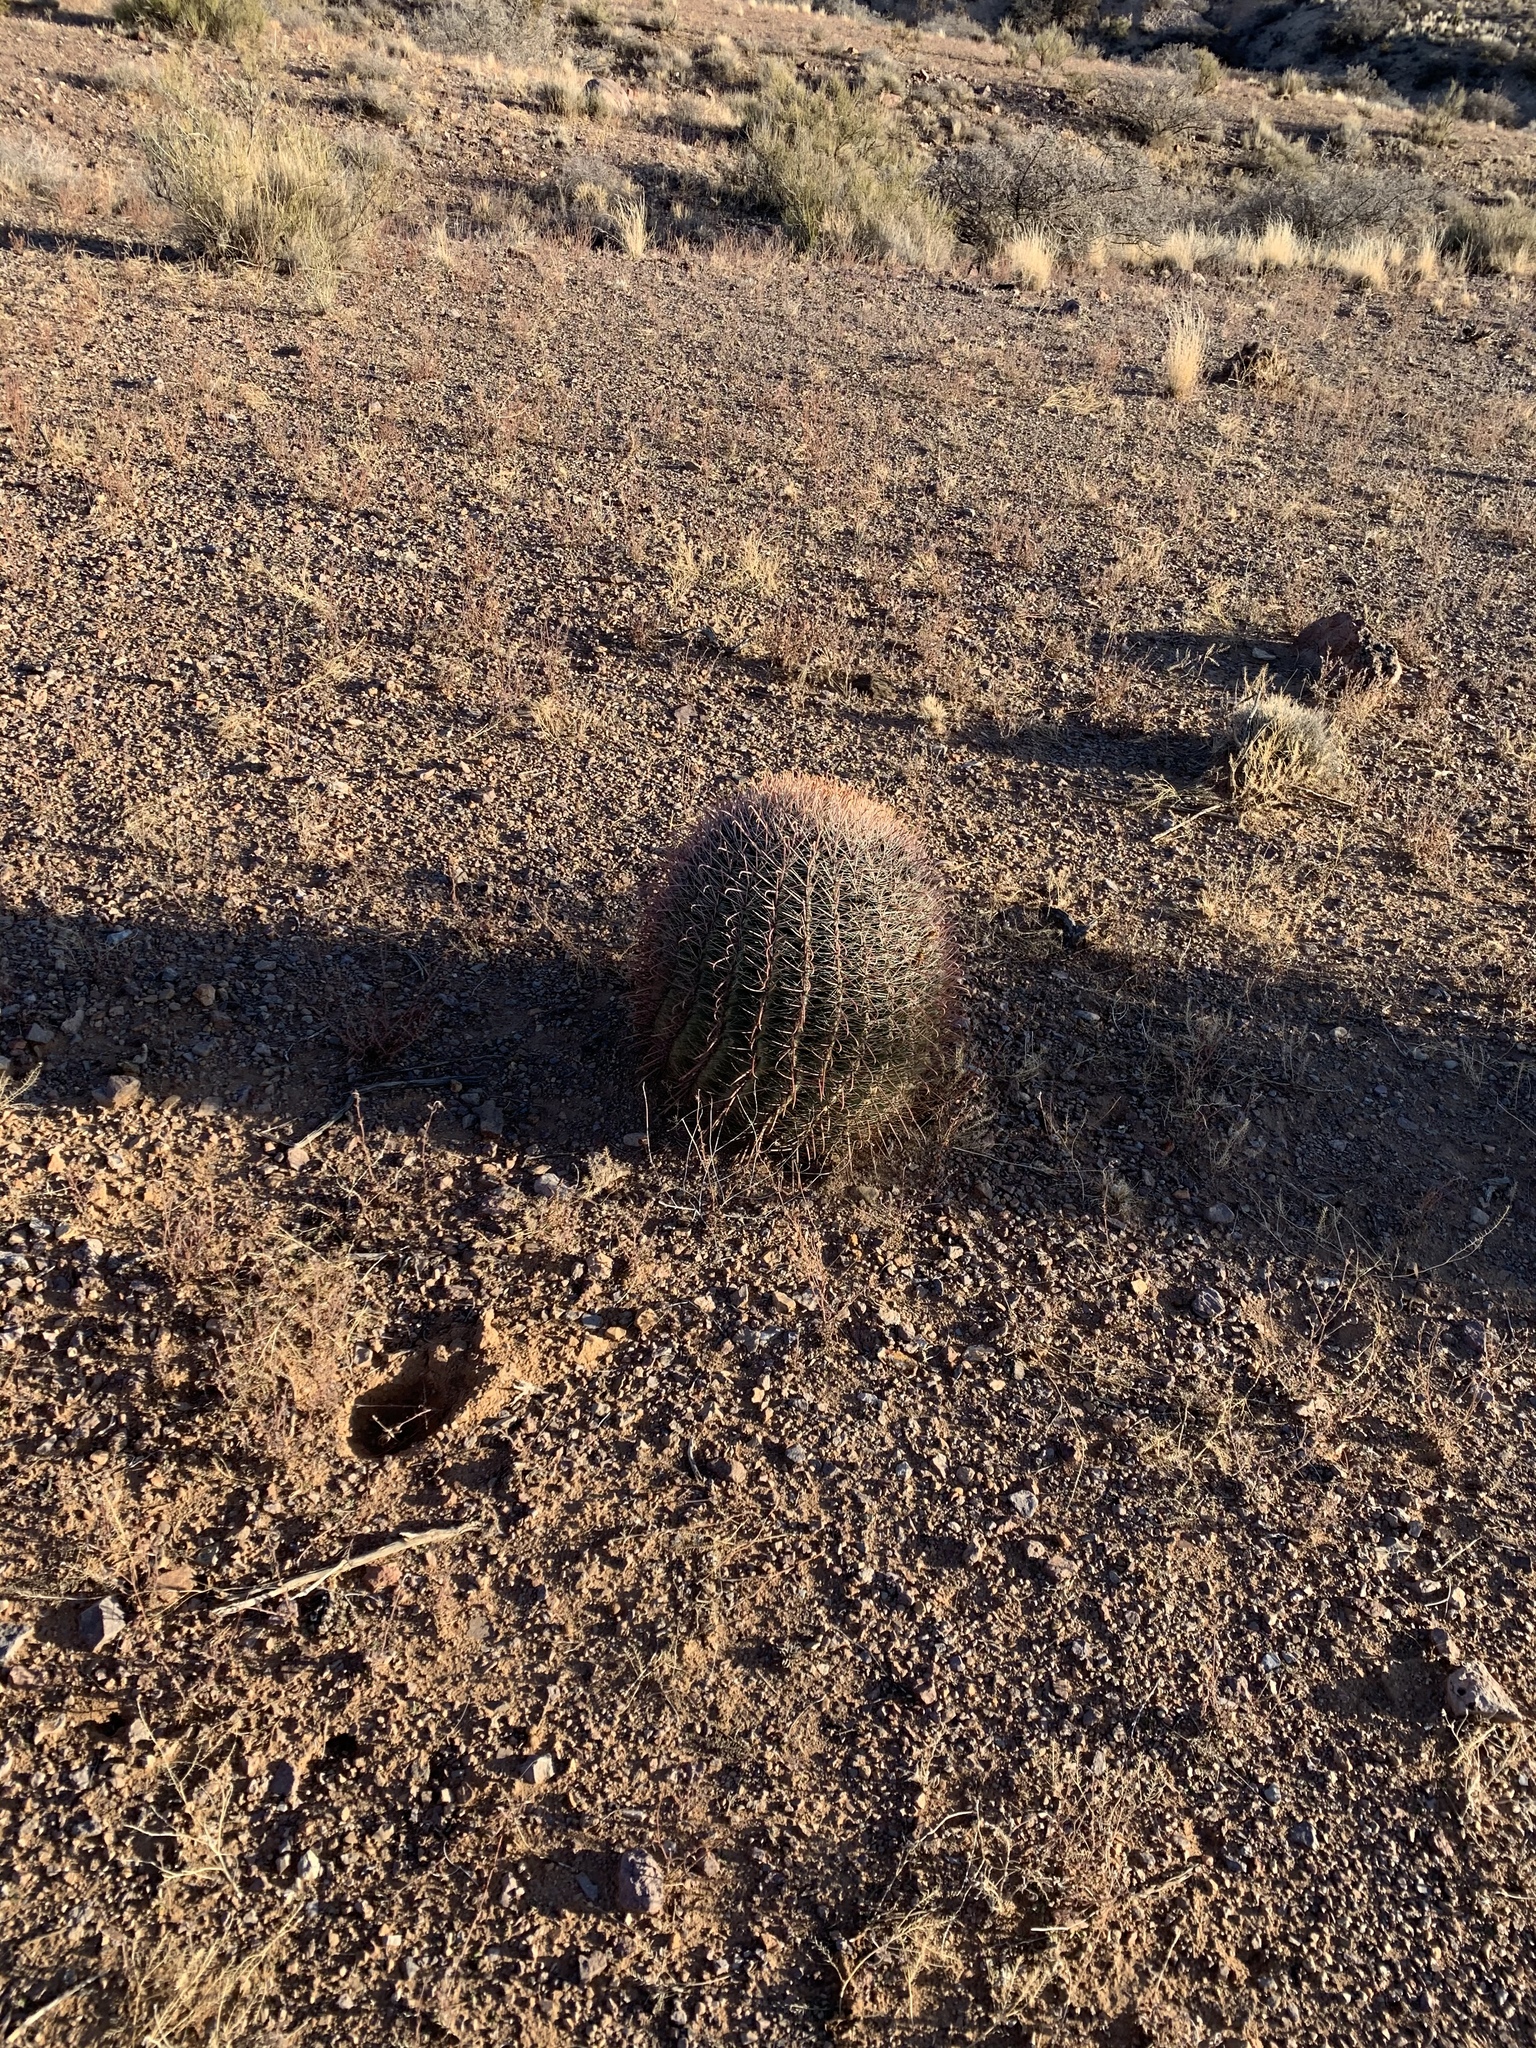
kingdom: Plantae
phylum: Tracheophyta
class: Magnoliopsida
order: Caryophyllales
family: Cactaceae
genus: Ferocactus
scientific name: Ferocactus wislizeni
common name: Candy barrel cactus
